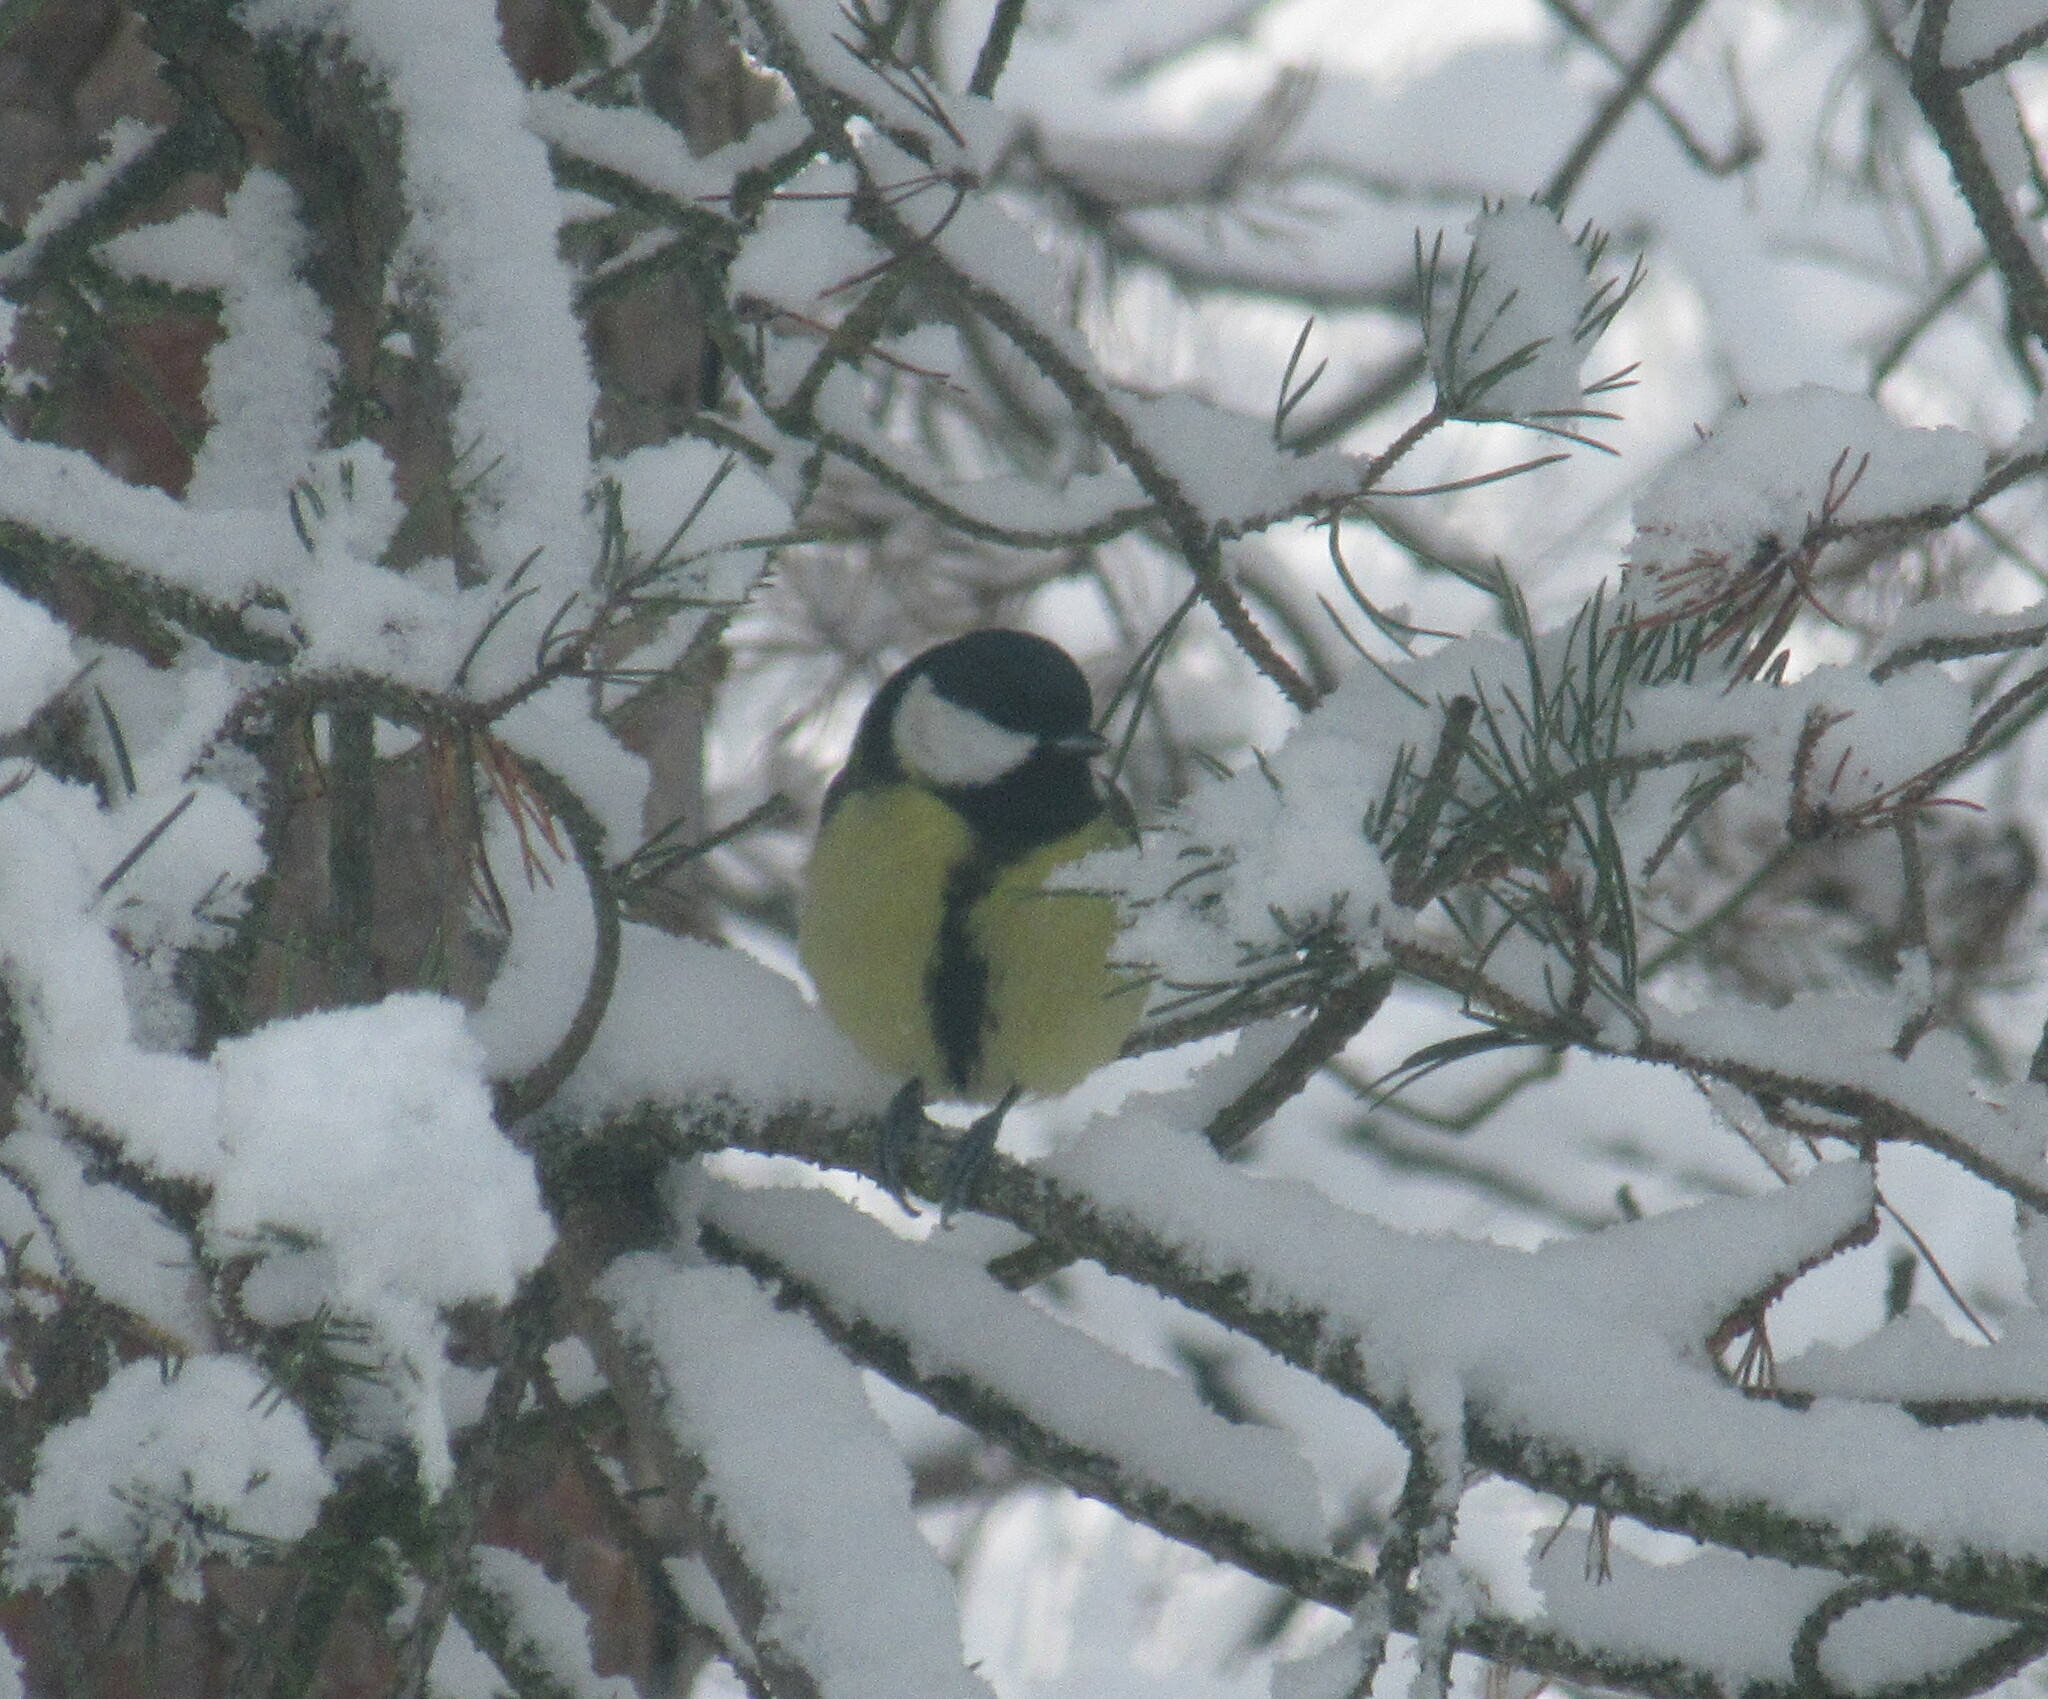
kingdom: Animalia
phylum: Chordata
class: Aves
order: Passeriformes
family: Paridae
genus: Parus
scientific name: Parus major
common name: Great tit
